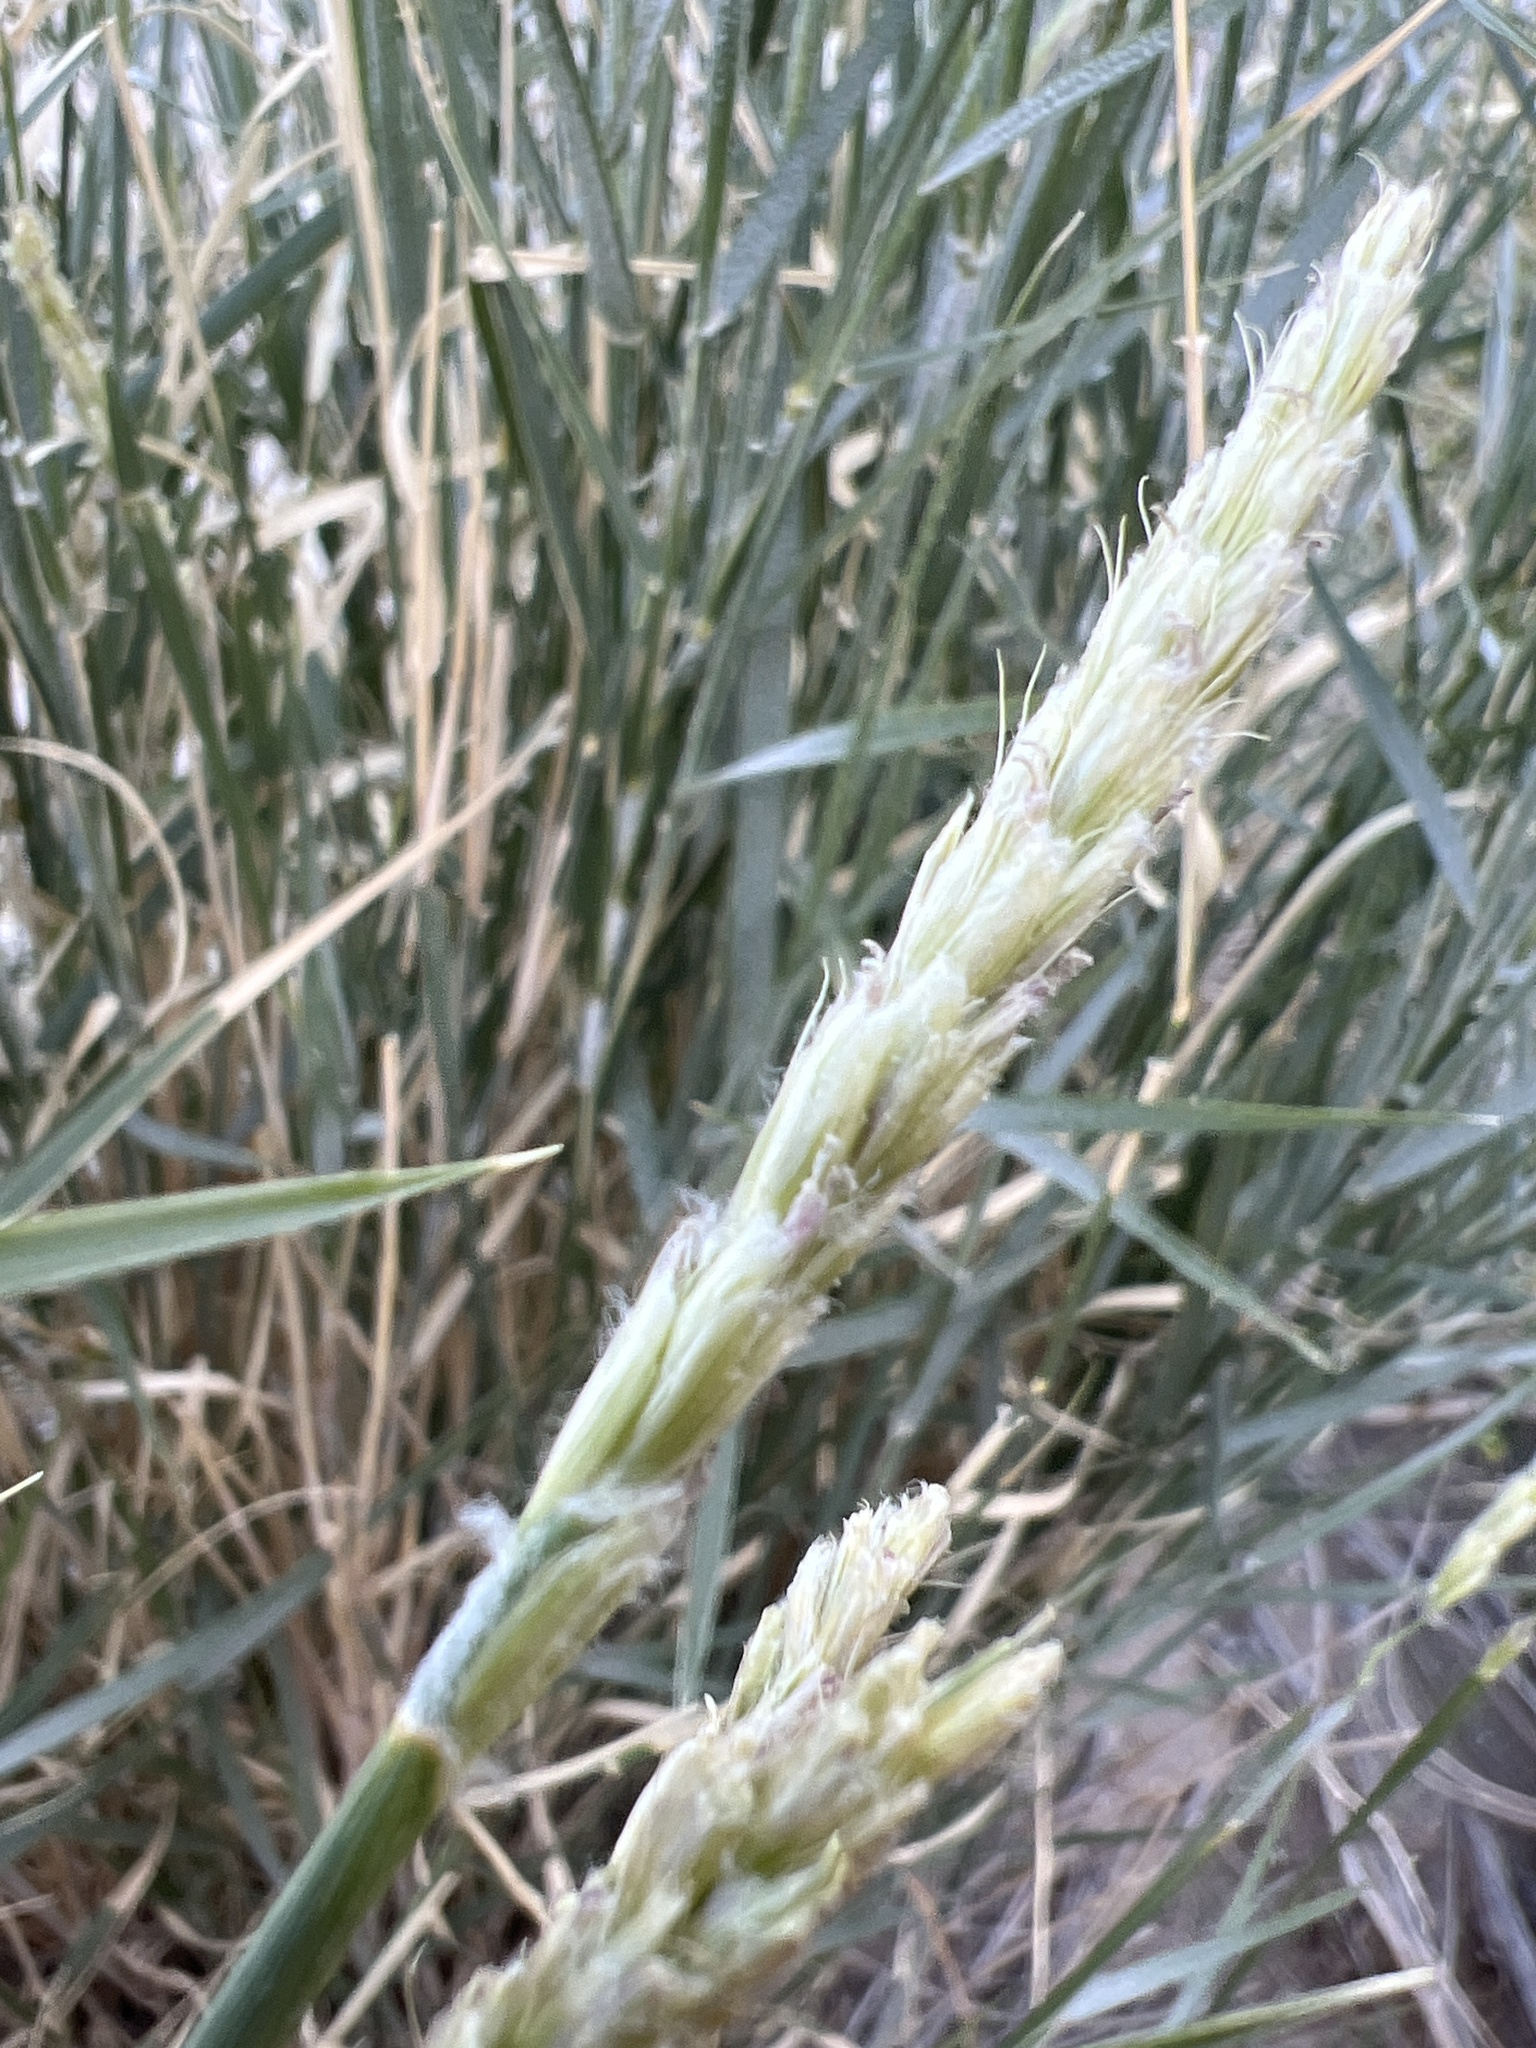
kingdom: Plantae
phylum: Tracheophyta
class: Liliopsida
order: Poales
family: Poaceae
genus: Hilaria
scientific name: Hilaria rigida
